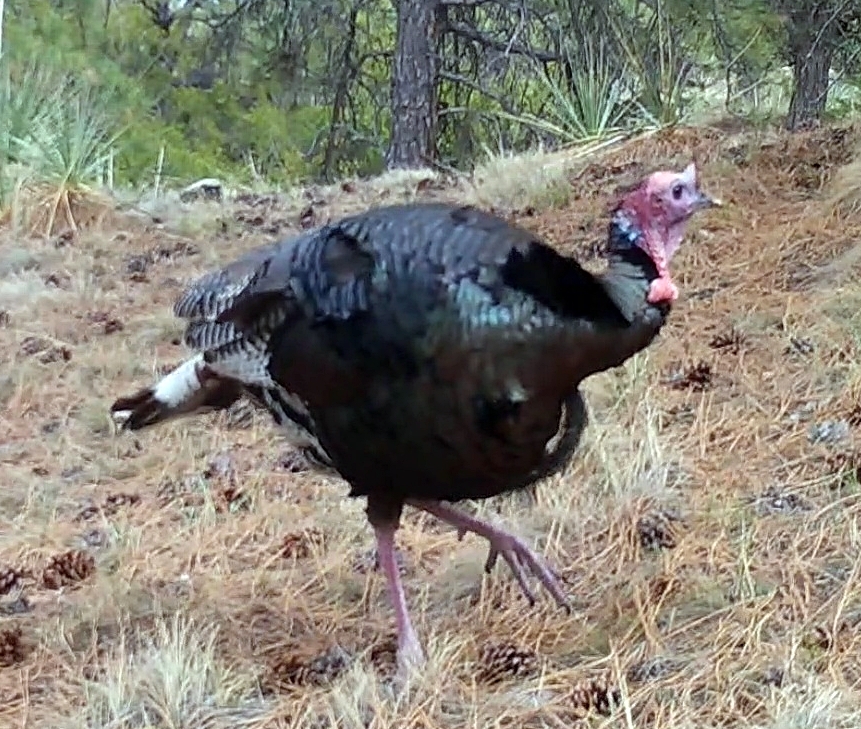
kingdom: Animalia
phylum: Chordata
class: Aves
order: Galliformes
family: Phasianidae
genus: Meleagris
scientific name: Meleagris gallopavo
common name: Wild turkey
